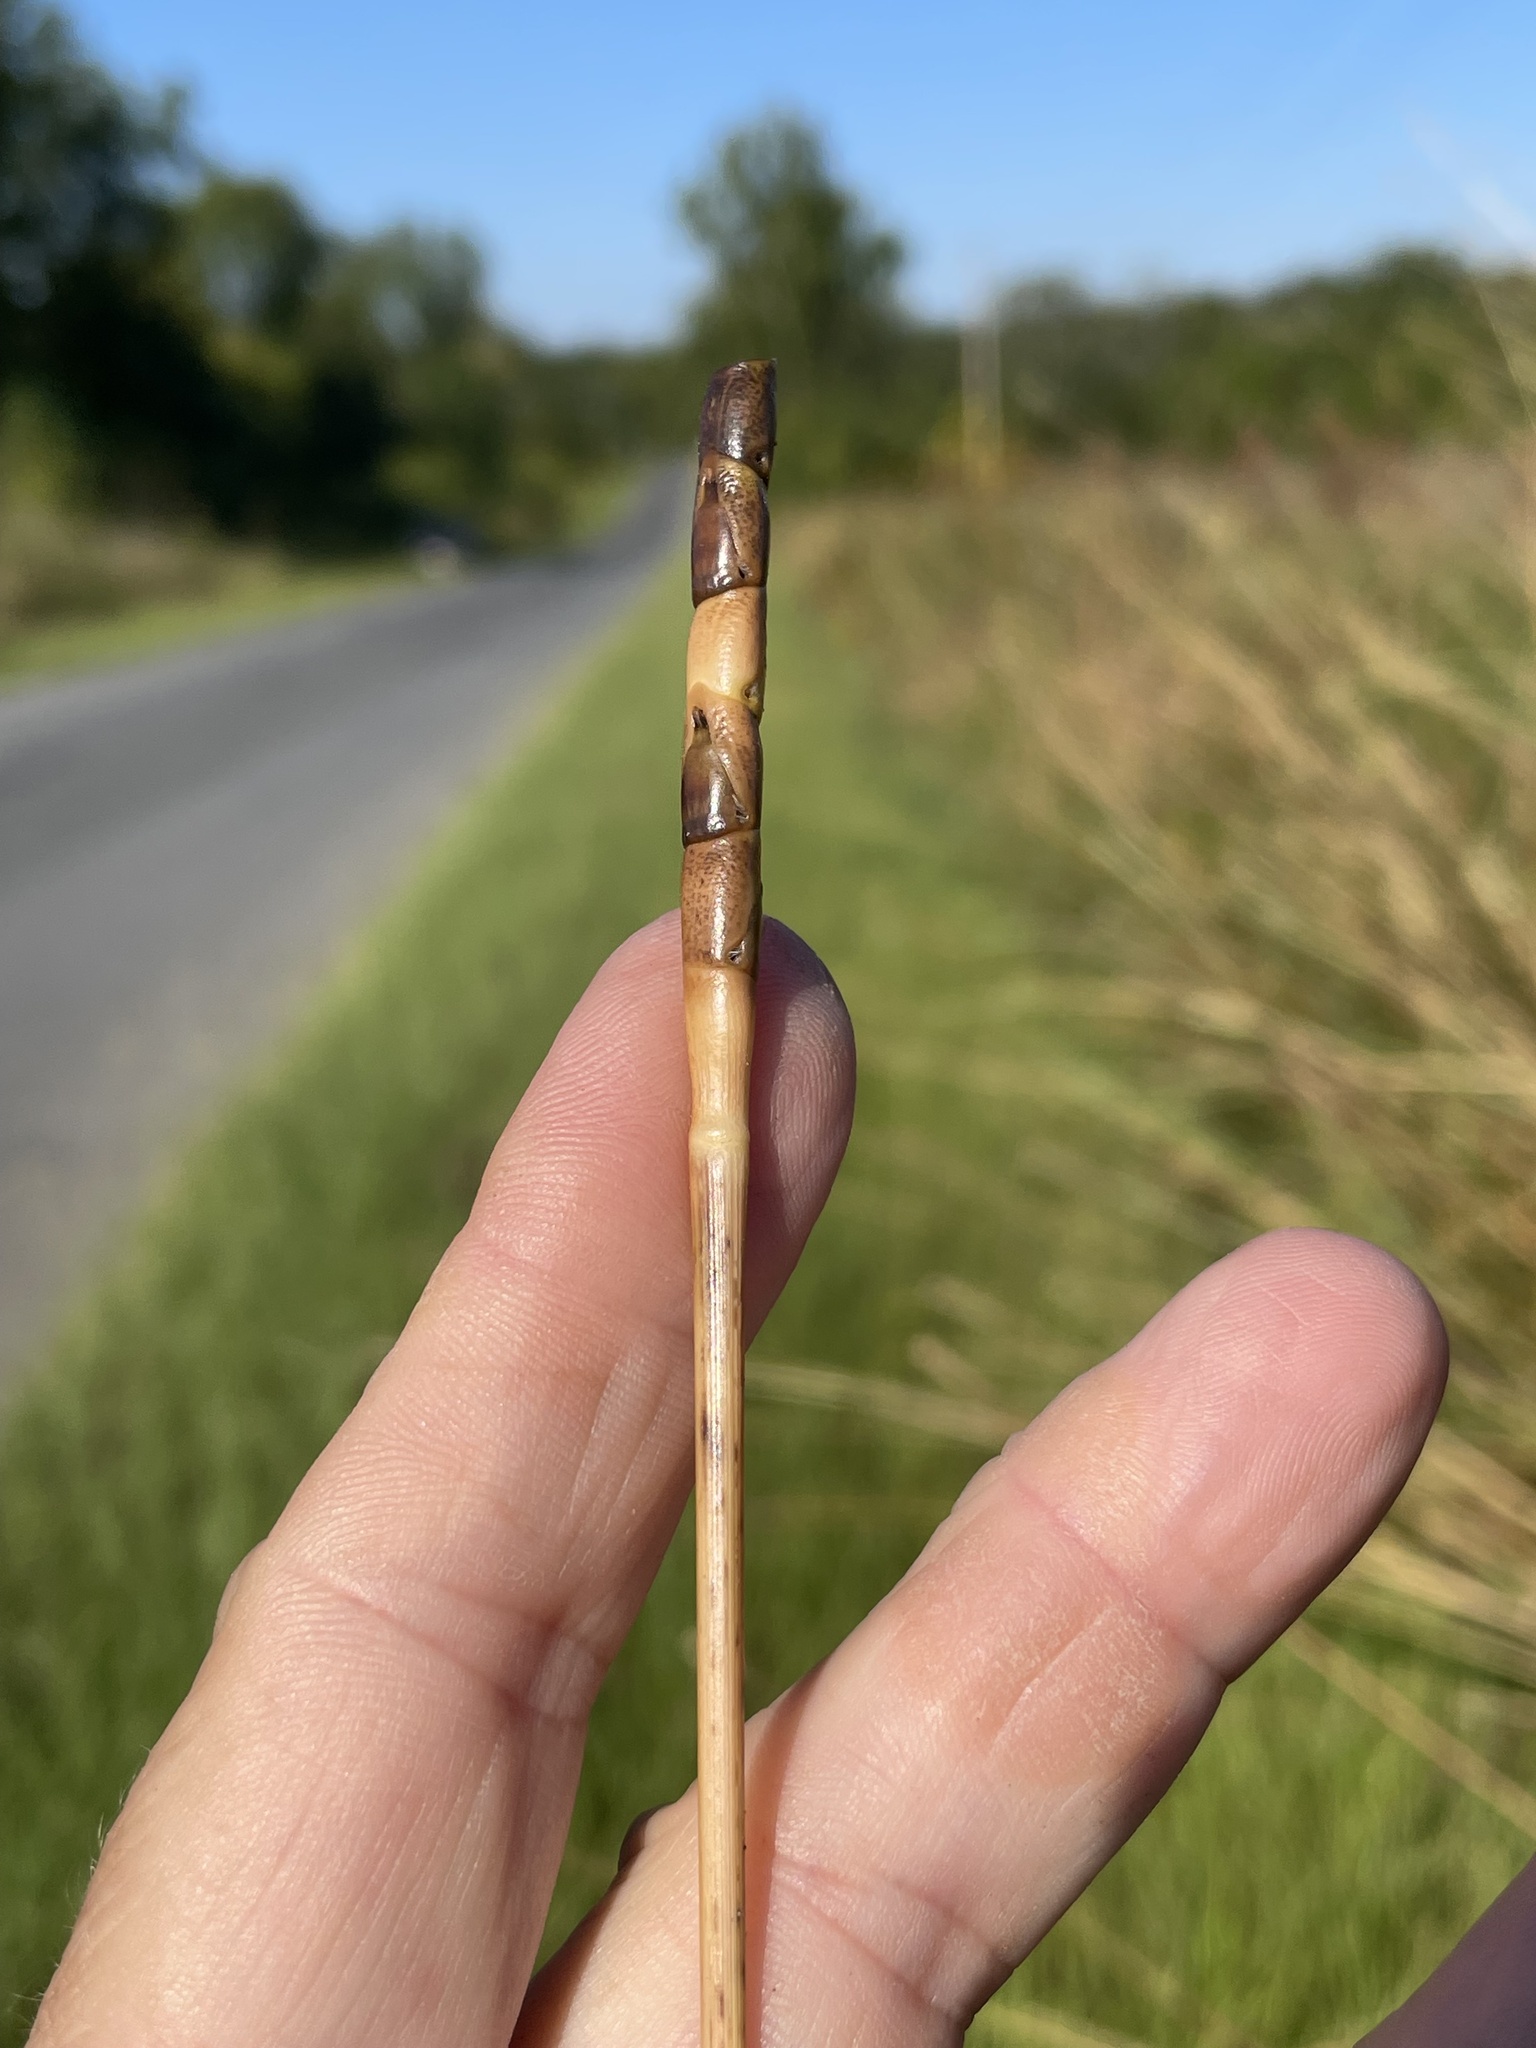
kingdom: Plantae
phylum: Tracheophyta
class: Liliopsida
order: Poales
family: Poaceae
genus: Tripsacum
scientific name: Tripsacum dactyloides
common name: Buffalo-grass
